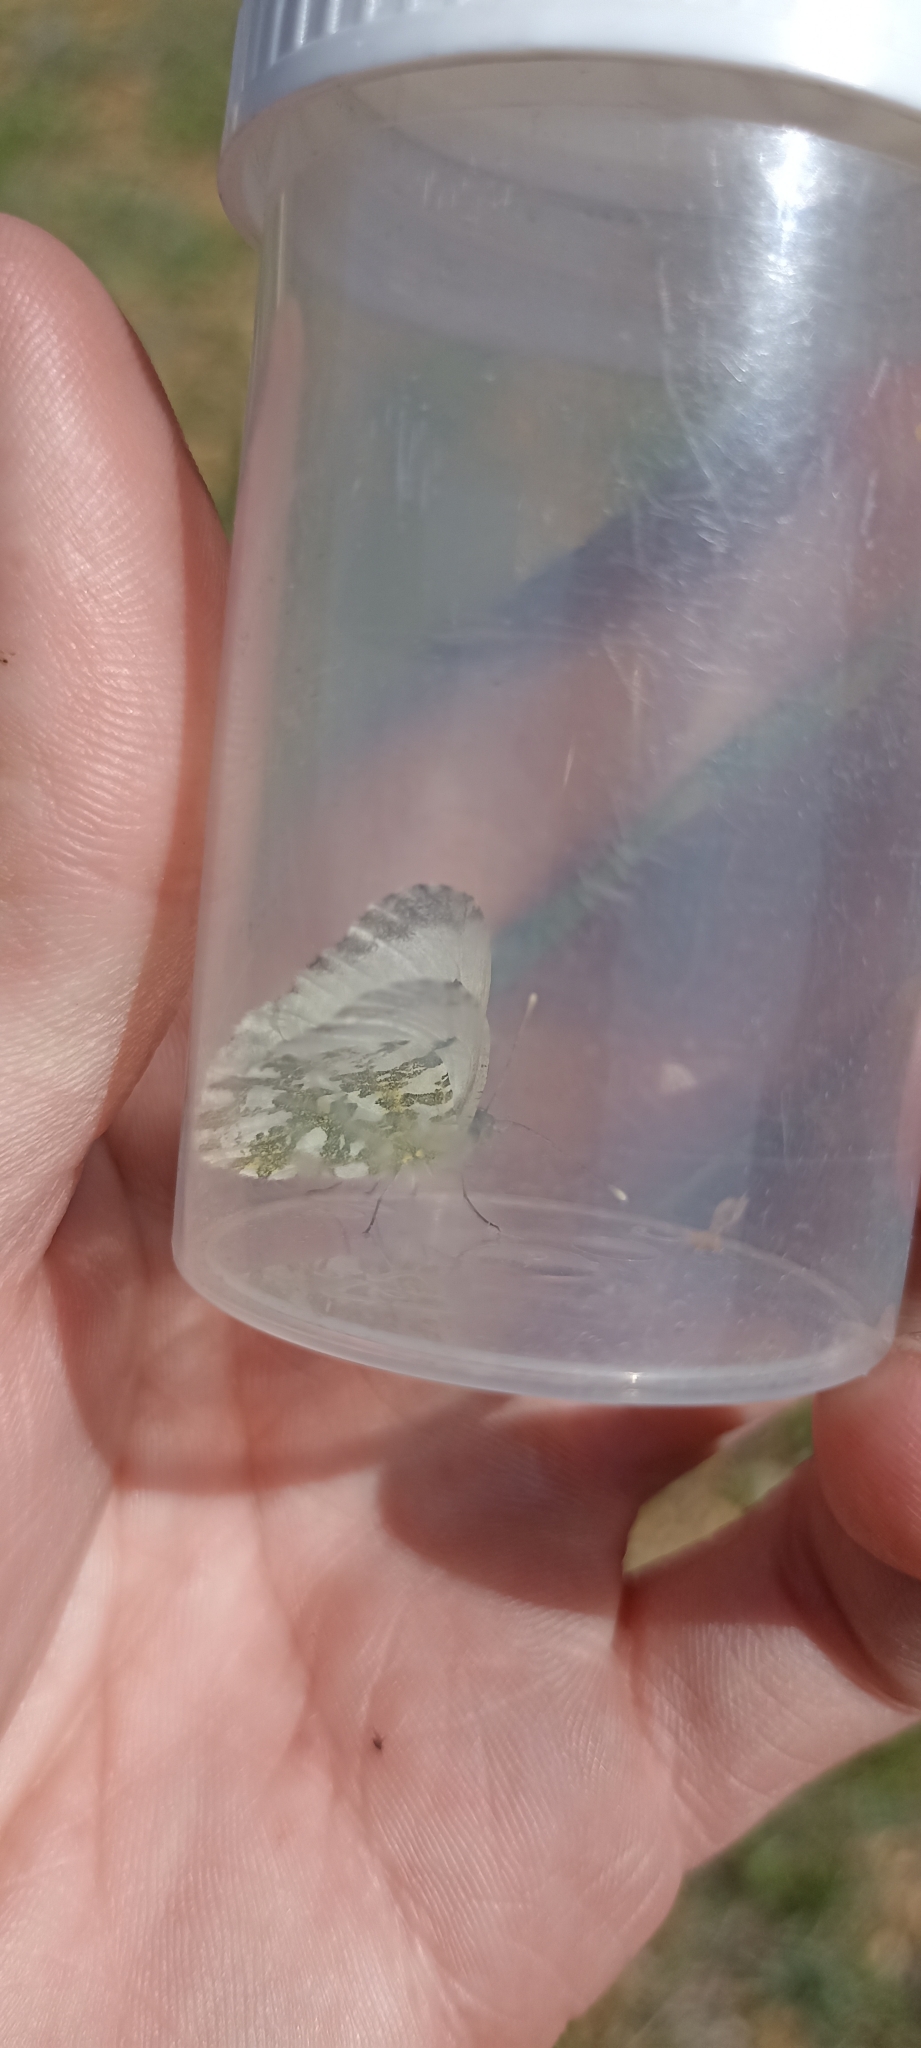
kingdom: Animalia
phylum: Arthropoda
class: Insecta
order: Lepidoptera
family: Pieridae
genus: Anthocharis
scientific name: Anthocharis cardamines
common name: Orange-tip
